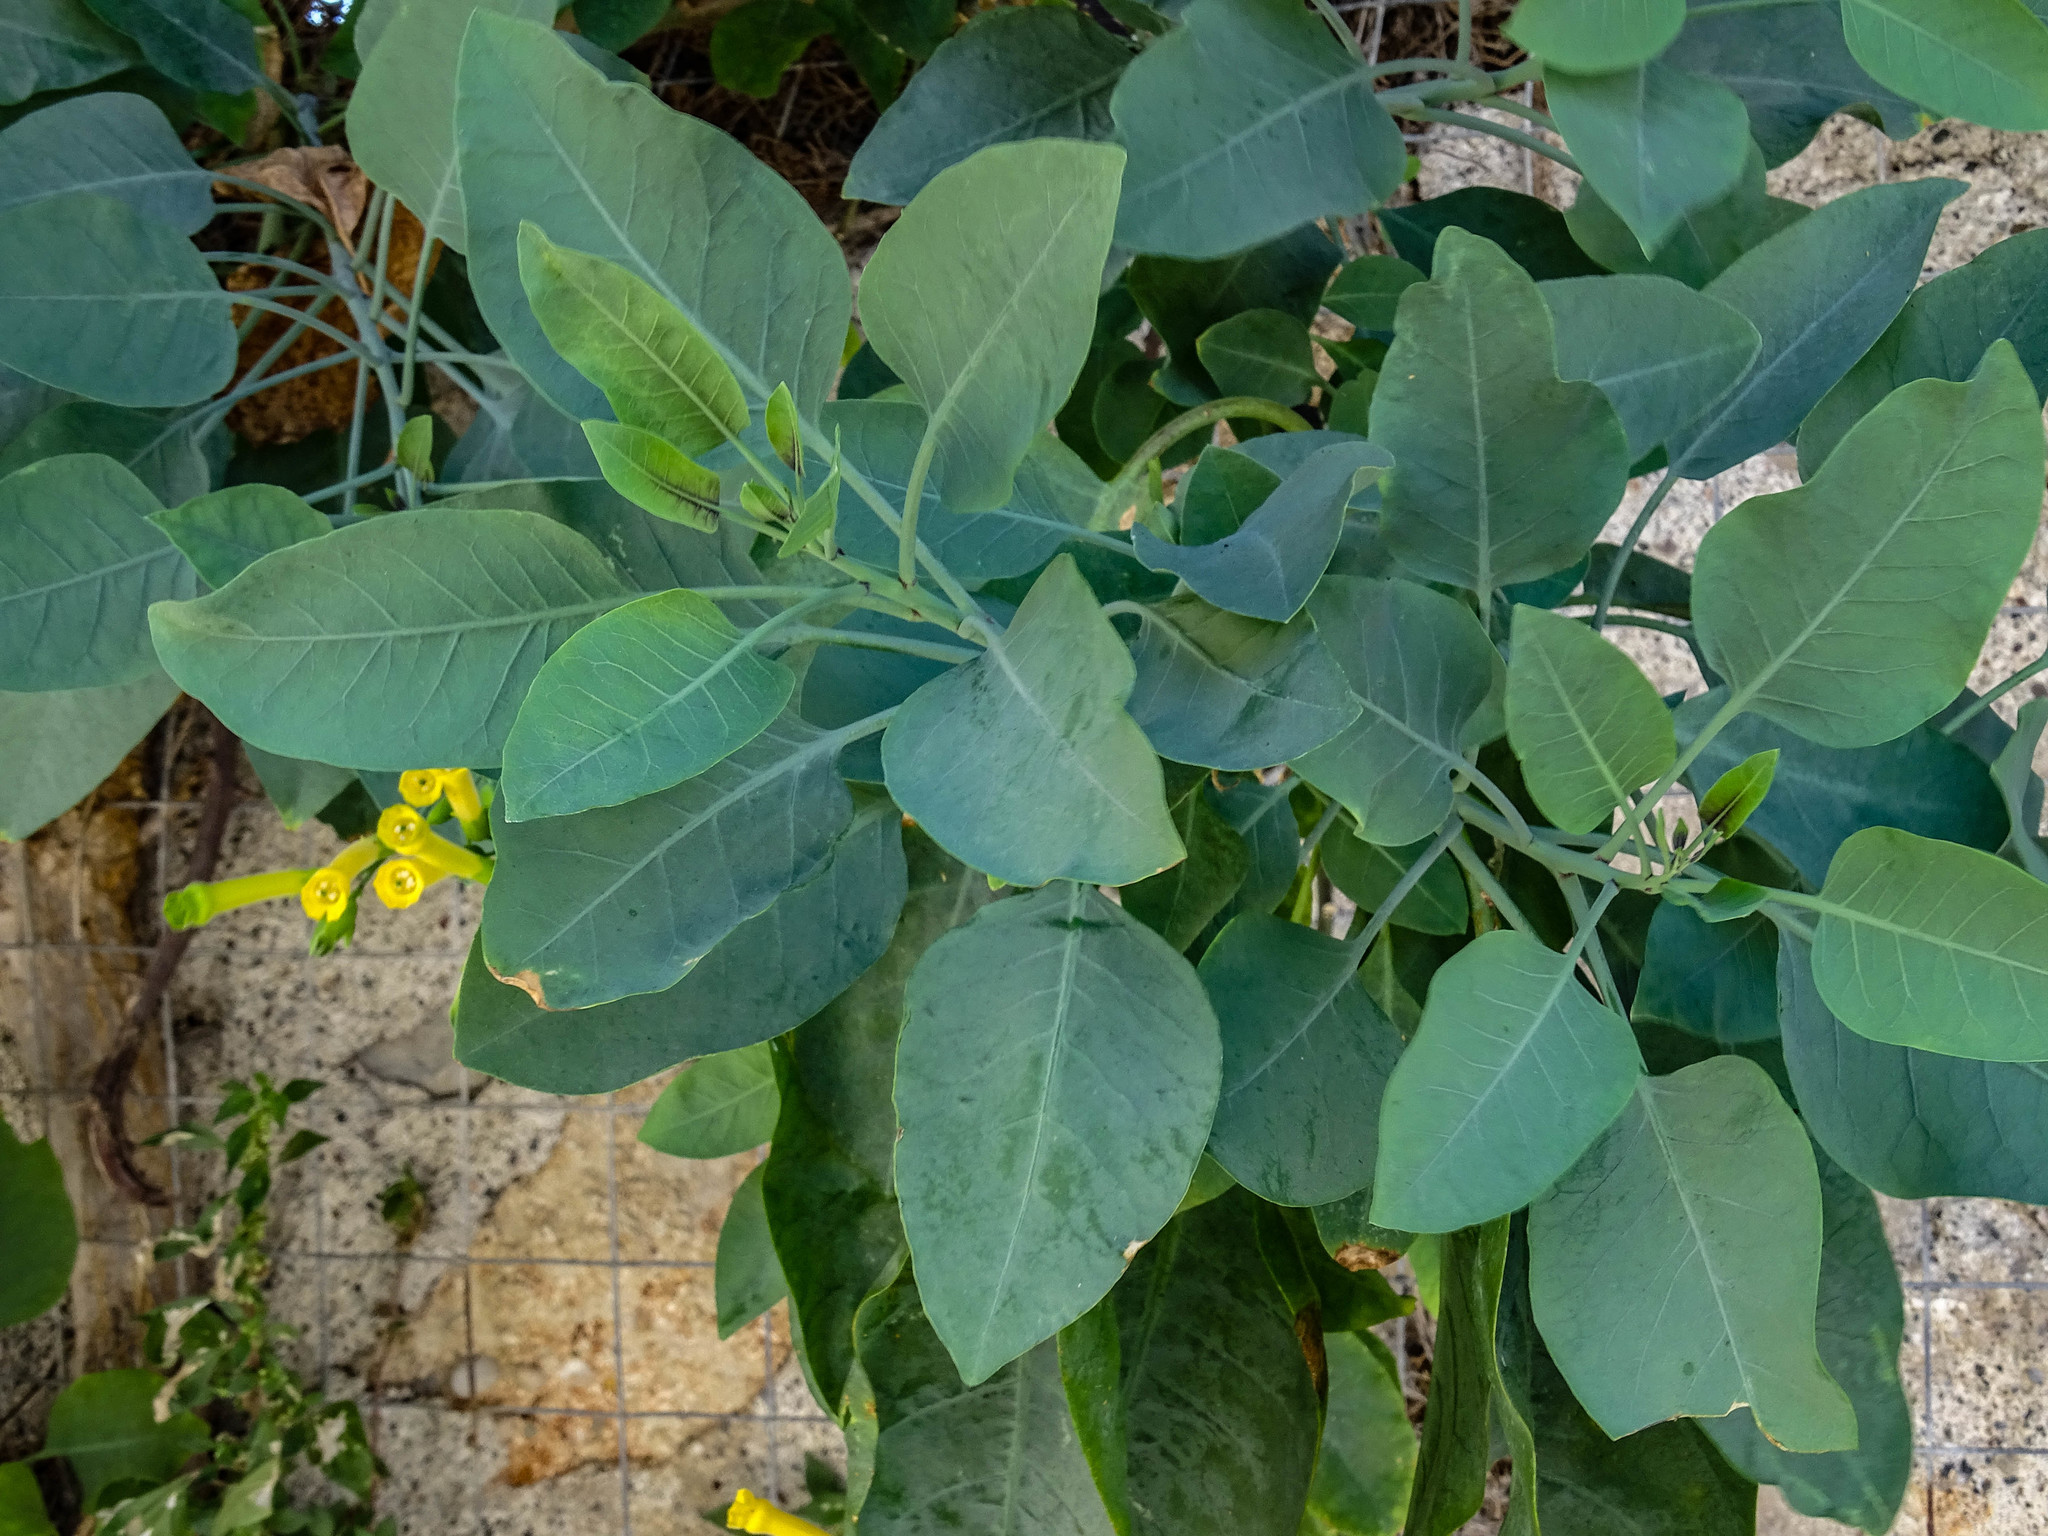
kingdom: Plantae
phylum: Tracheophyta
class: Magnoliopsida
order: Solanales
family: Solanaceae
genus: Nicotiana
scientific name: Nicotiana glauca
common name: Tree tobacco
